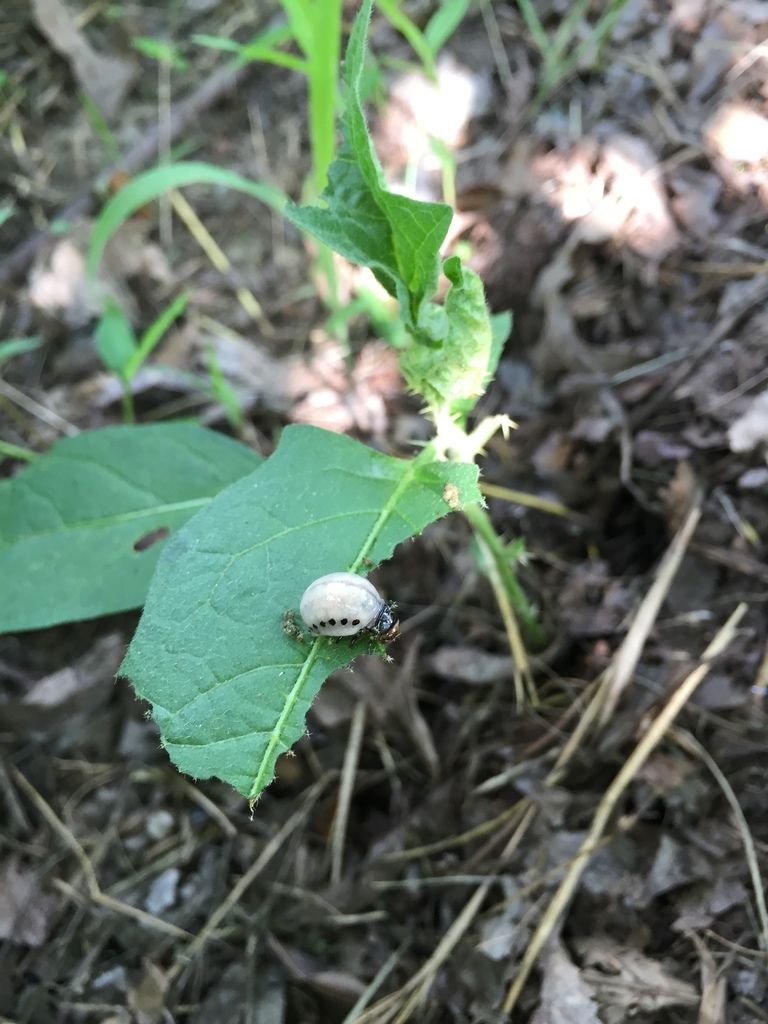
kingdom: Animalia
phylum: Arthropoda
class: Insecta
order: Coleoptera
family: Chrysomelidae
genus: Leptinotarsa
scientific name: Leptinotarsa juncta
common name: False potato beetle
